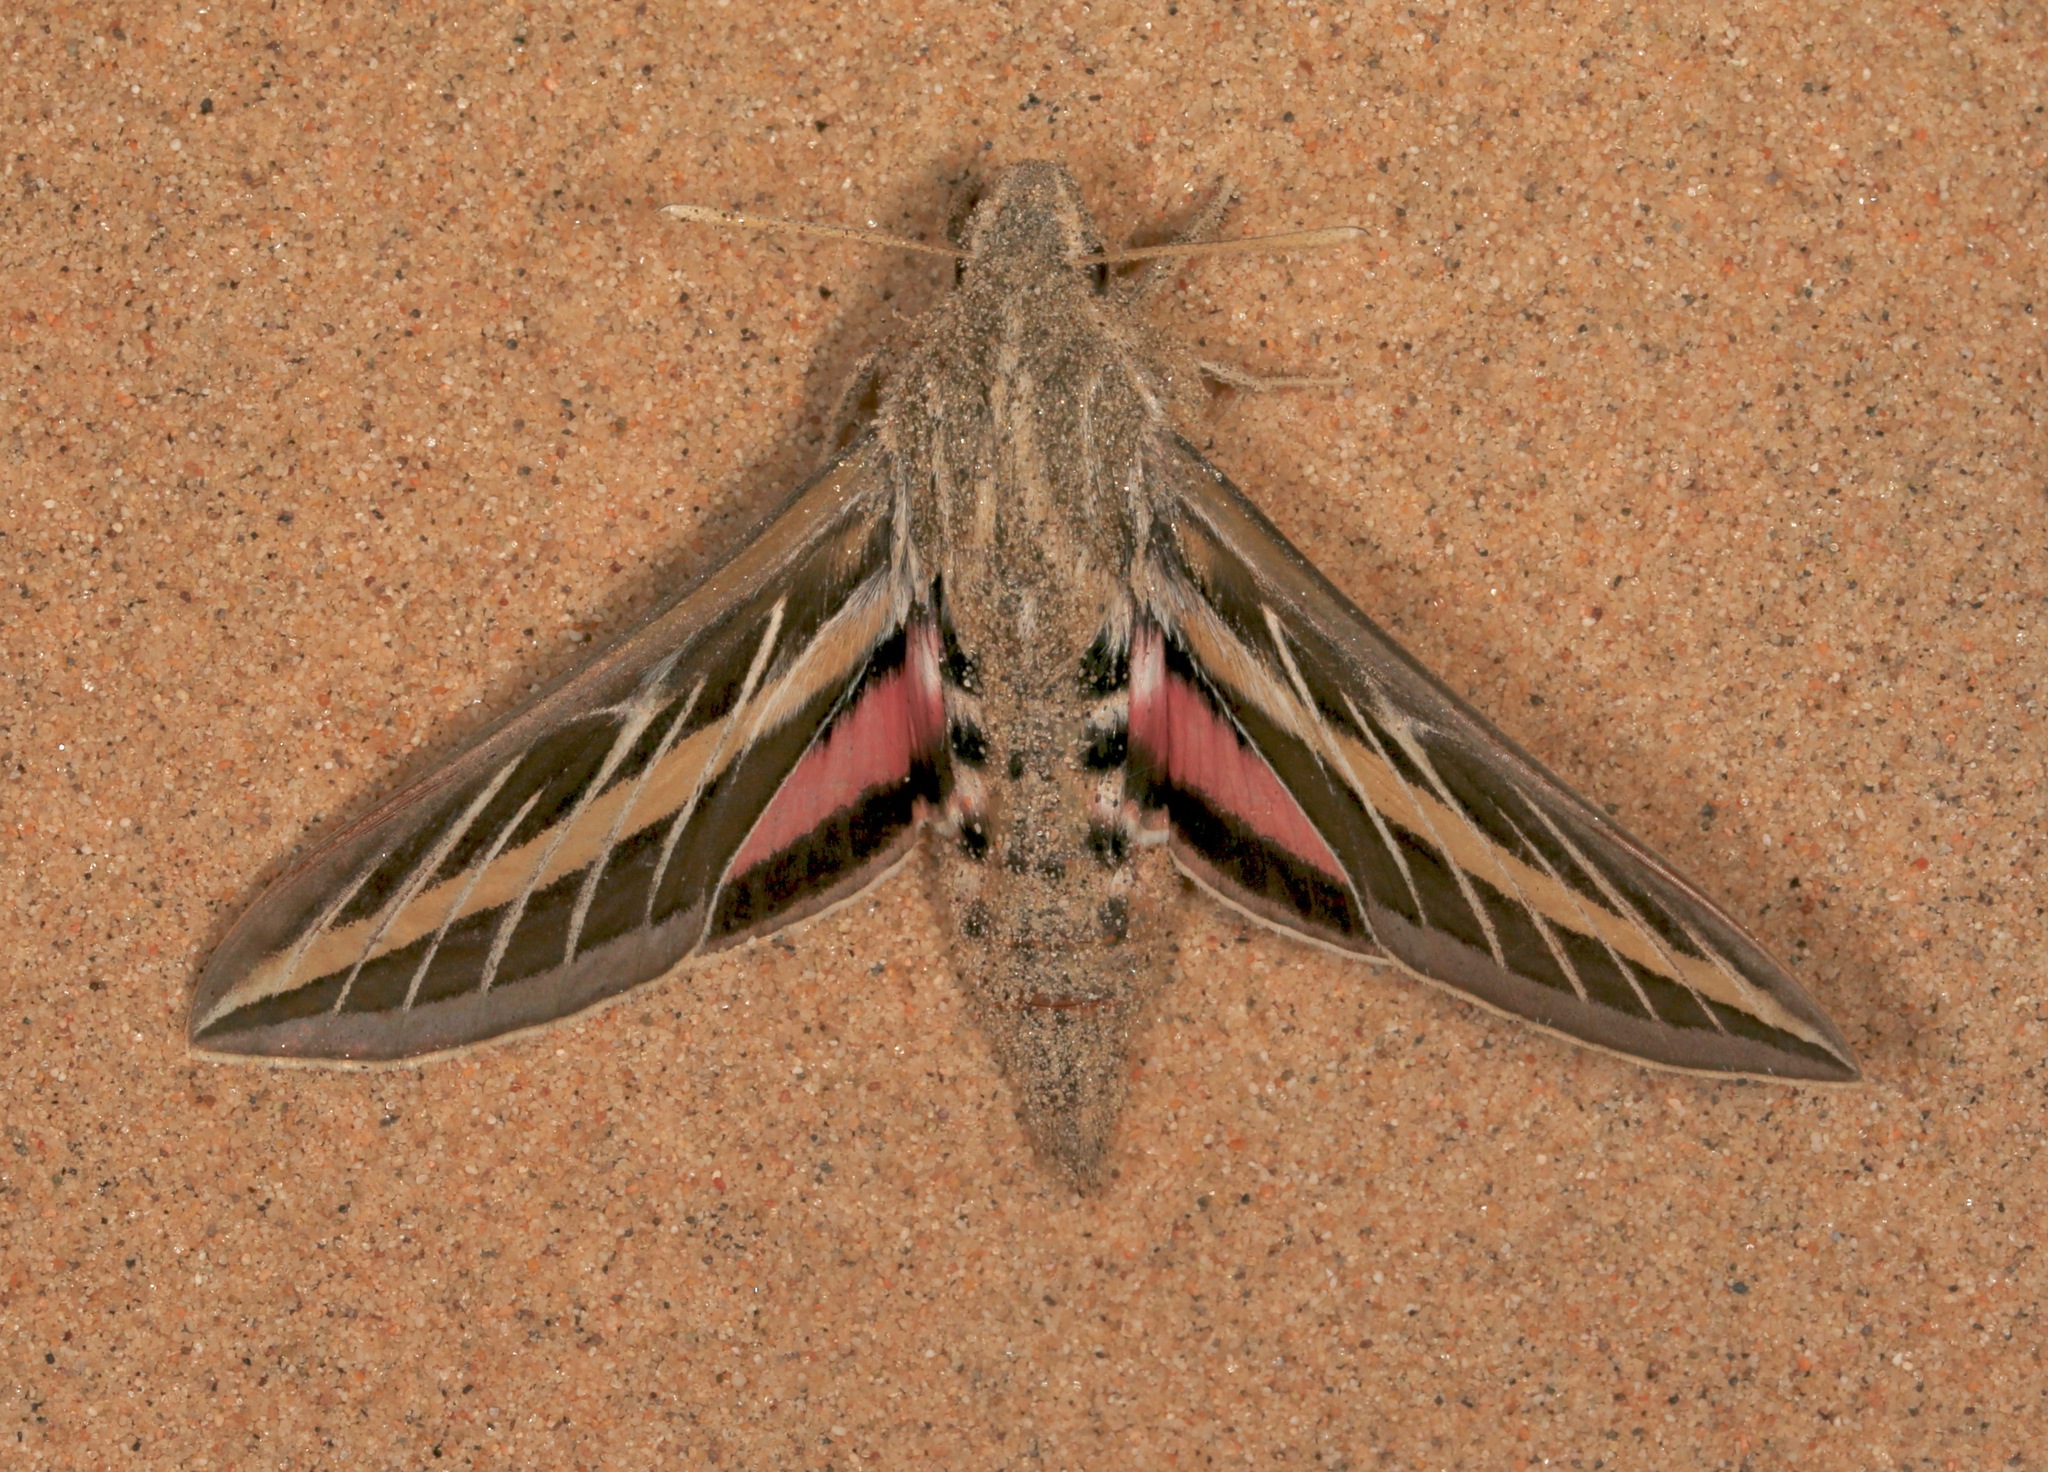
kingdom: Animalia
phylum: Arthropoda
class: Insecta
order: Lepidoptera
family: Sphingidae
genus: Hyles
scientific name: Hyles lineata
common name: White-lined sphinx
